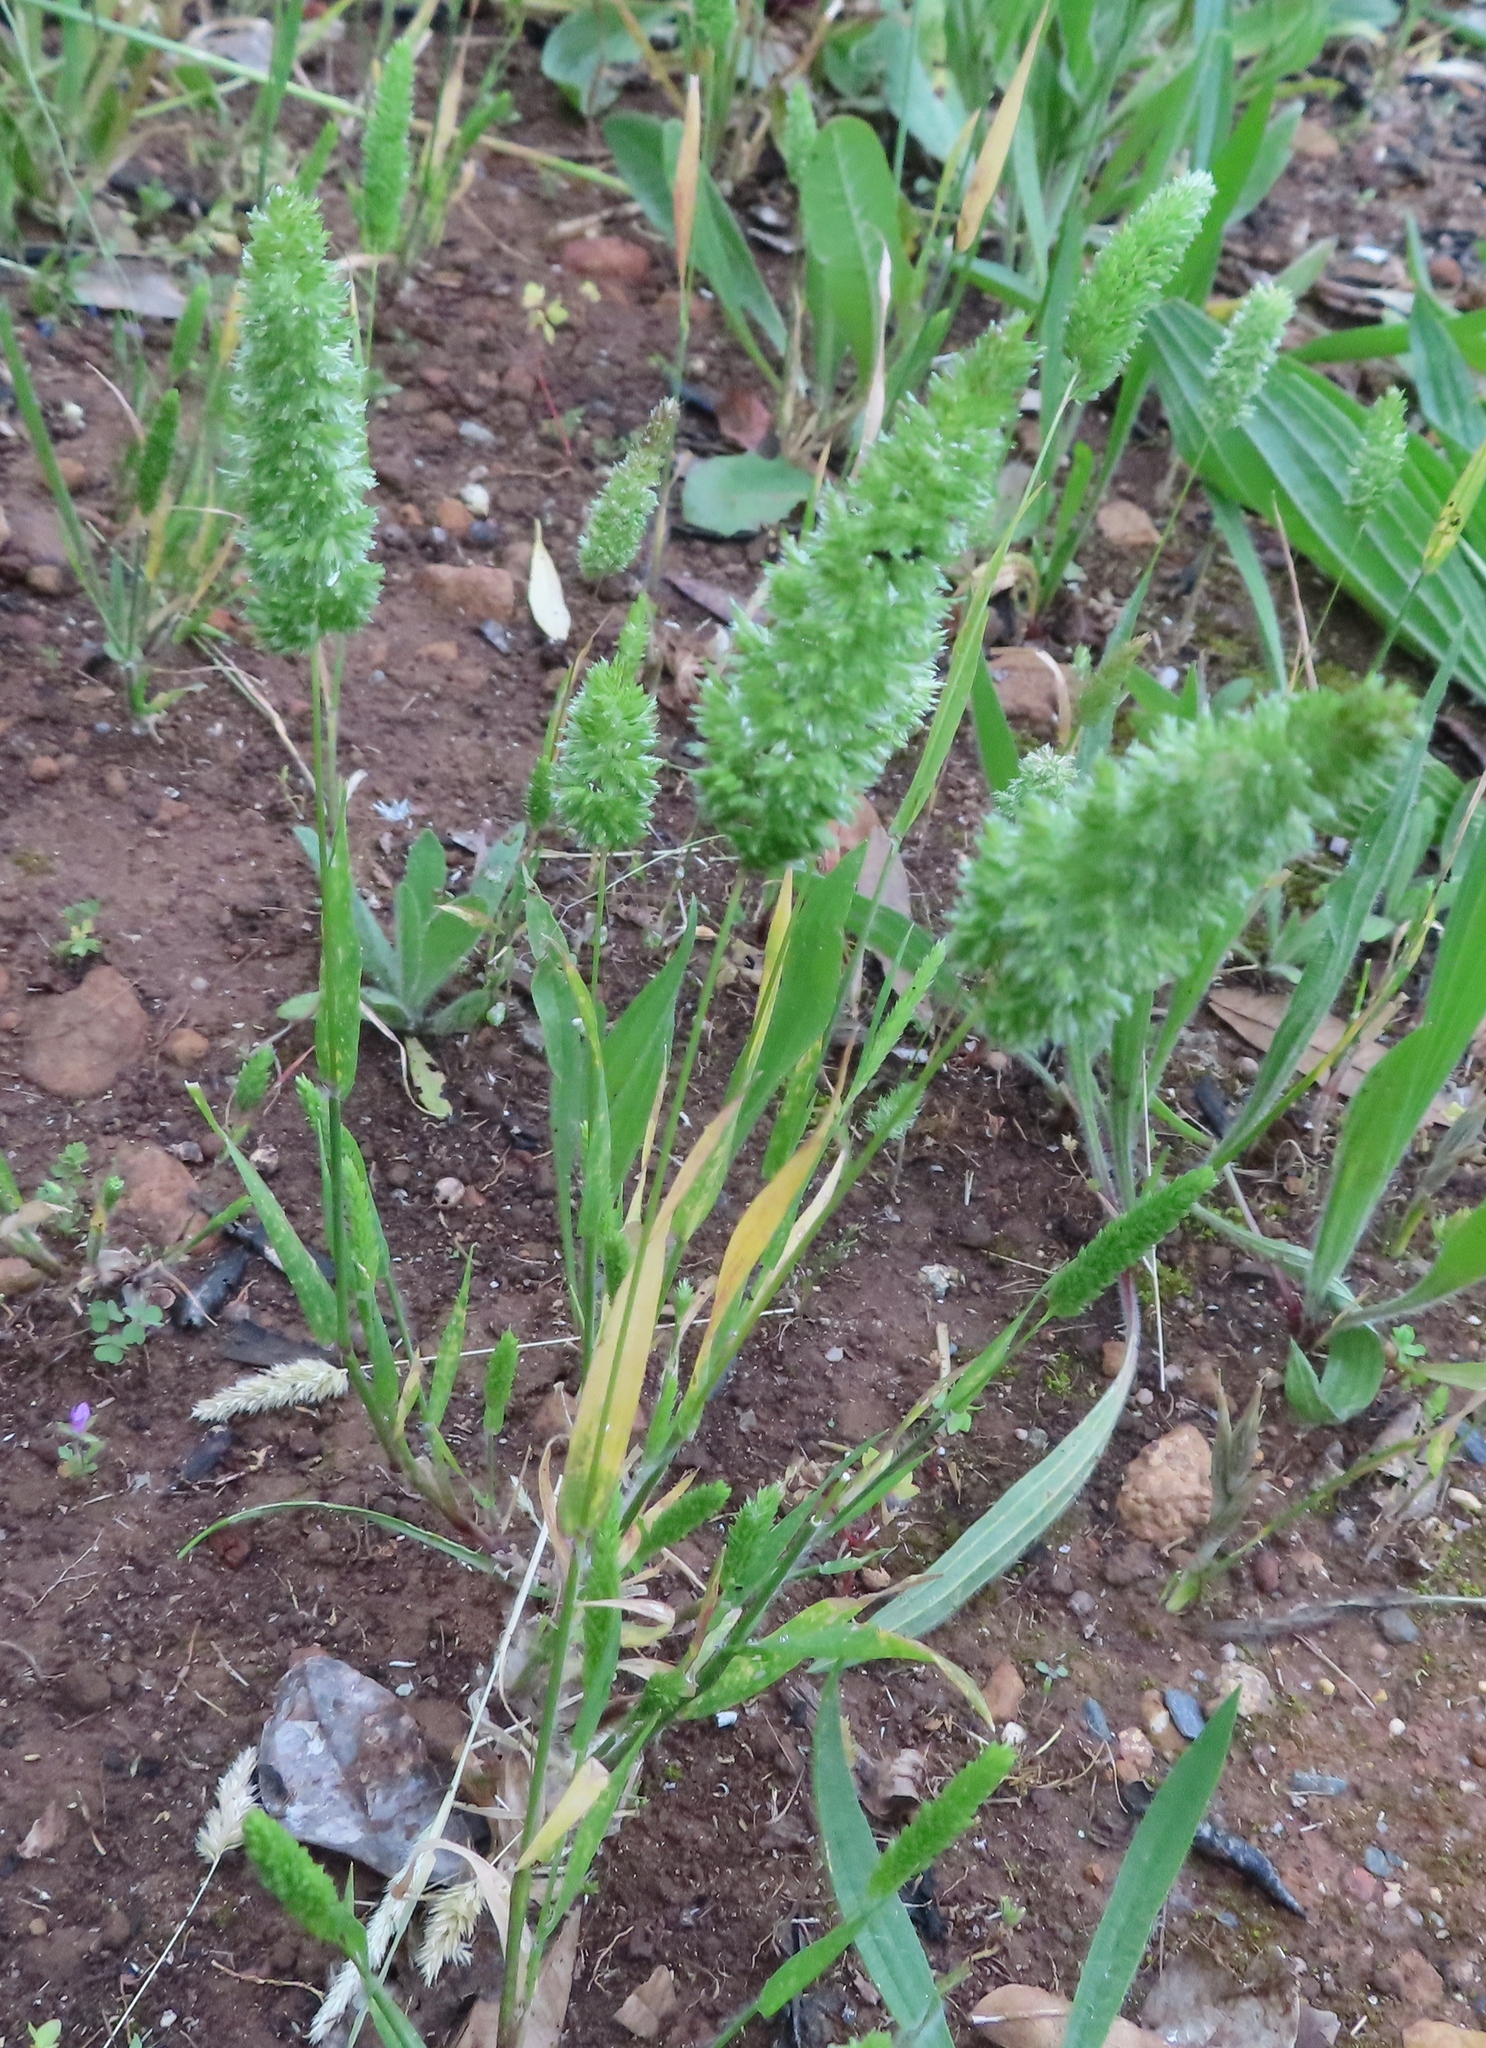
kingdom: Plantae
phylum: Tracheophyta
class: Liliopsida
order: Poales
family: Poaceae
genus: Phalaris
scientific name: Phalaris canariensis
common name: Annual canarygrass
